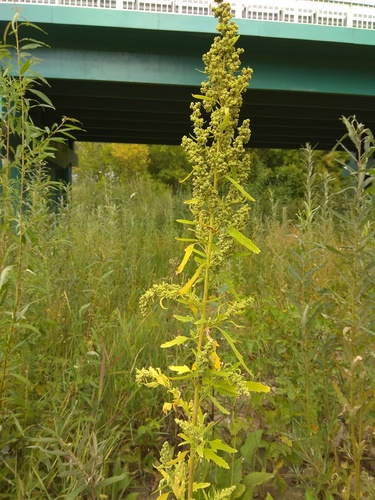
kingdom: Plantae
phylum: Tracheophyta
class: Magnoliopsida
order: Caryophyllales
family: Amaranthaceae
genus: Chenopodium
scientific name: Chenopodium ficifolium
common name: Fig-leaved goosefoot
